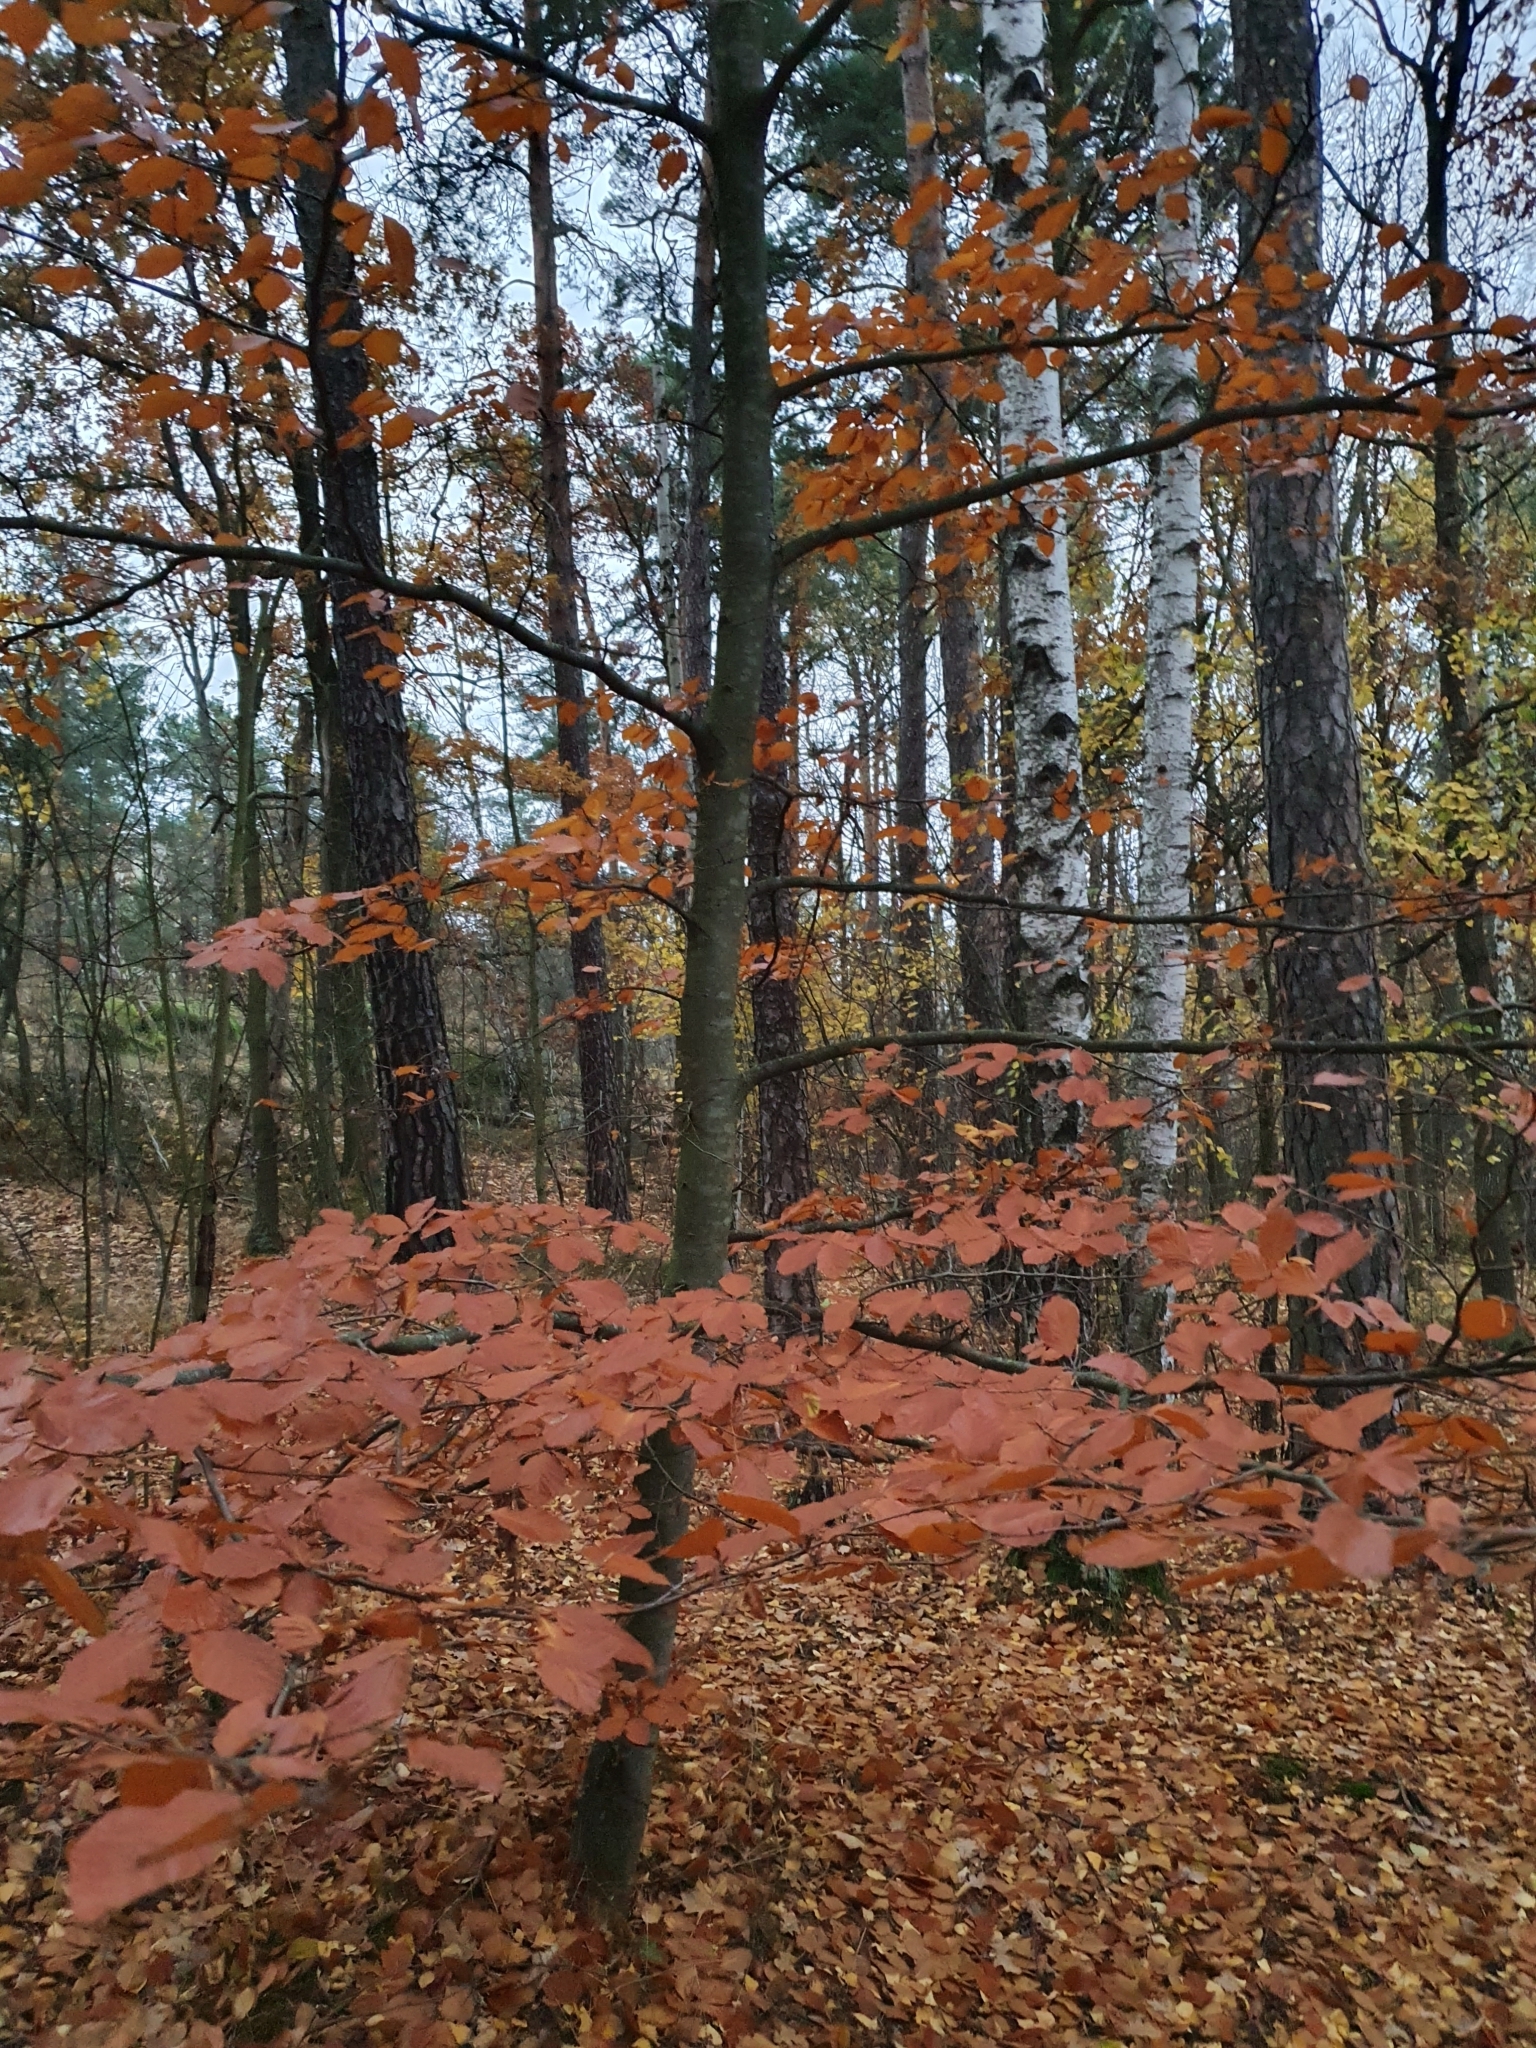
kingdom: Plantae
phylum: Tracheophyta
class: Magnoliopsida
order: Fagales
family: Fagaceae
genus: Fagus
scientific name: Fagus sylvatica
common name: Beech
